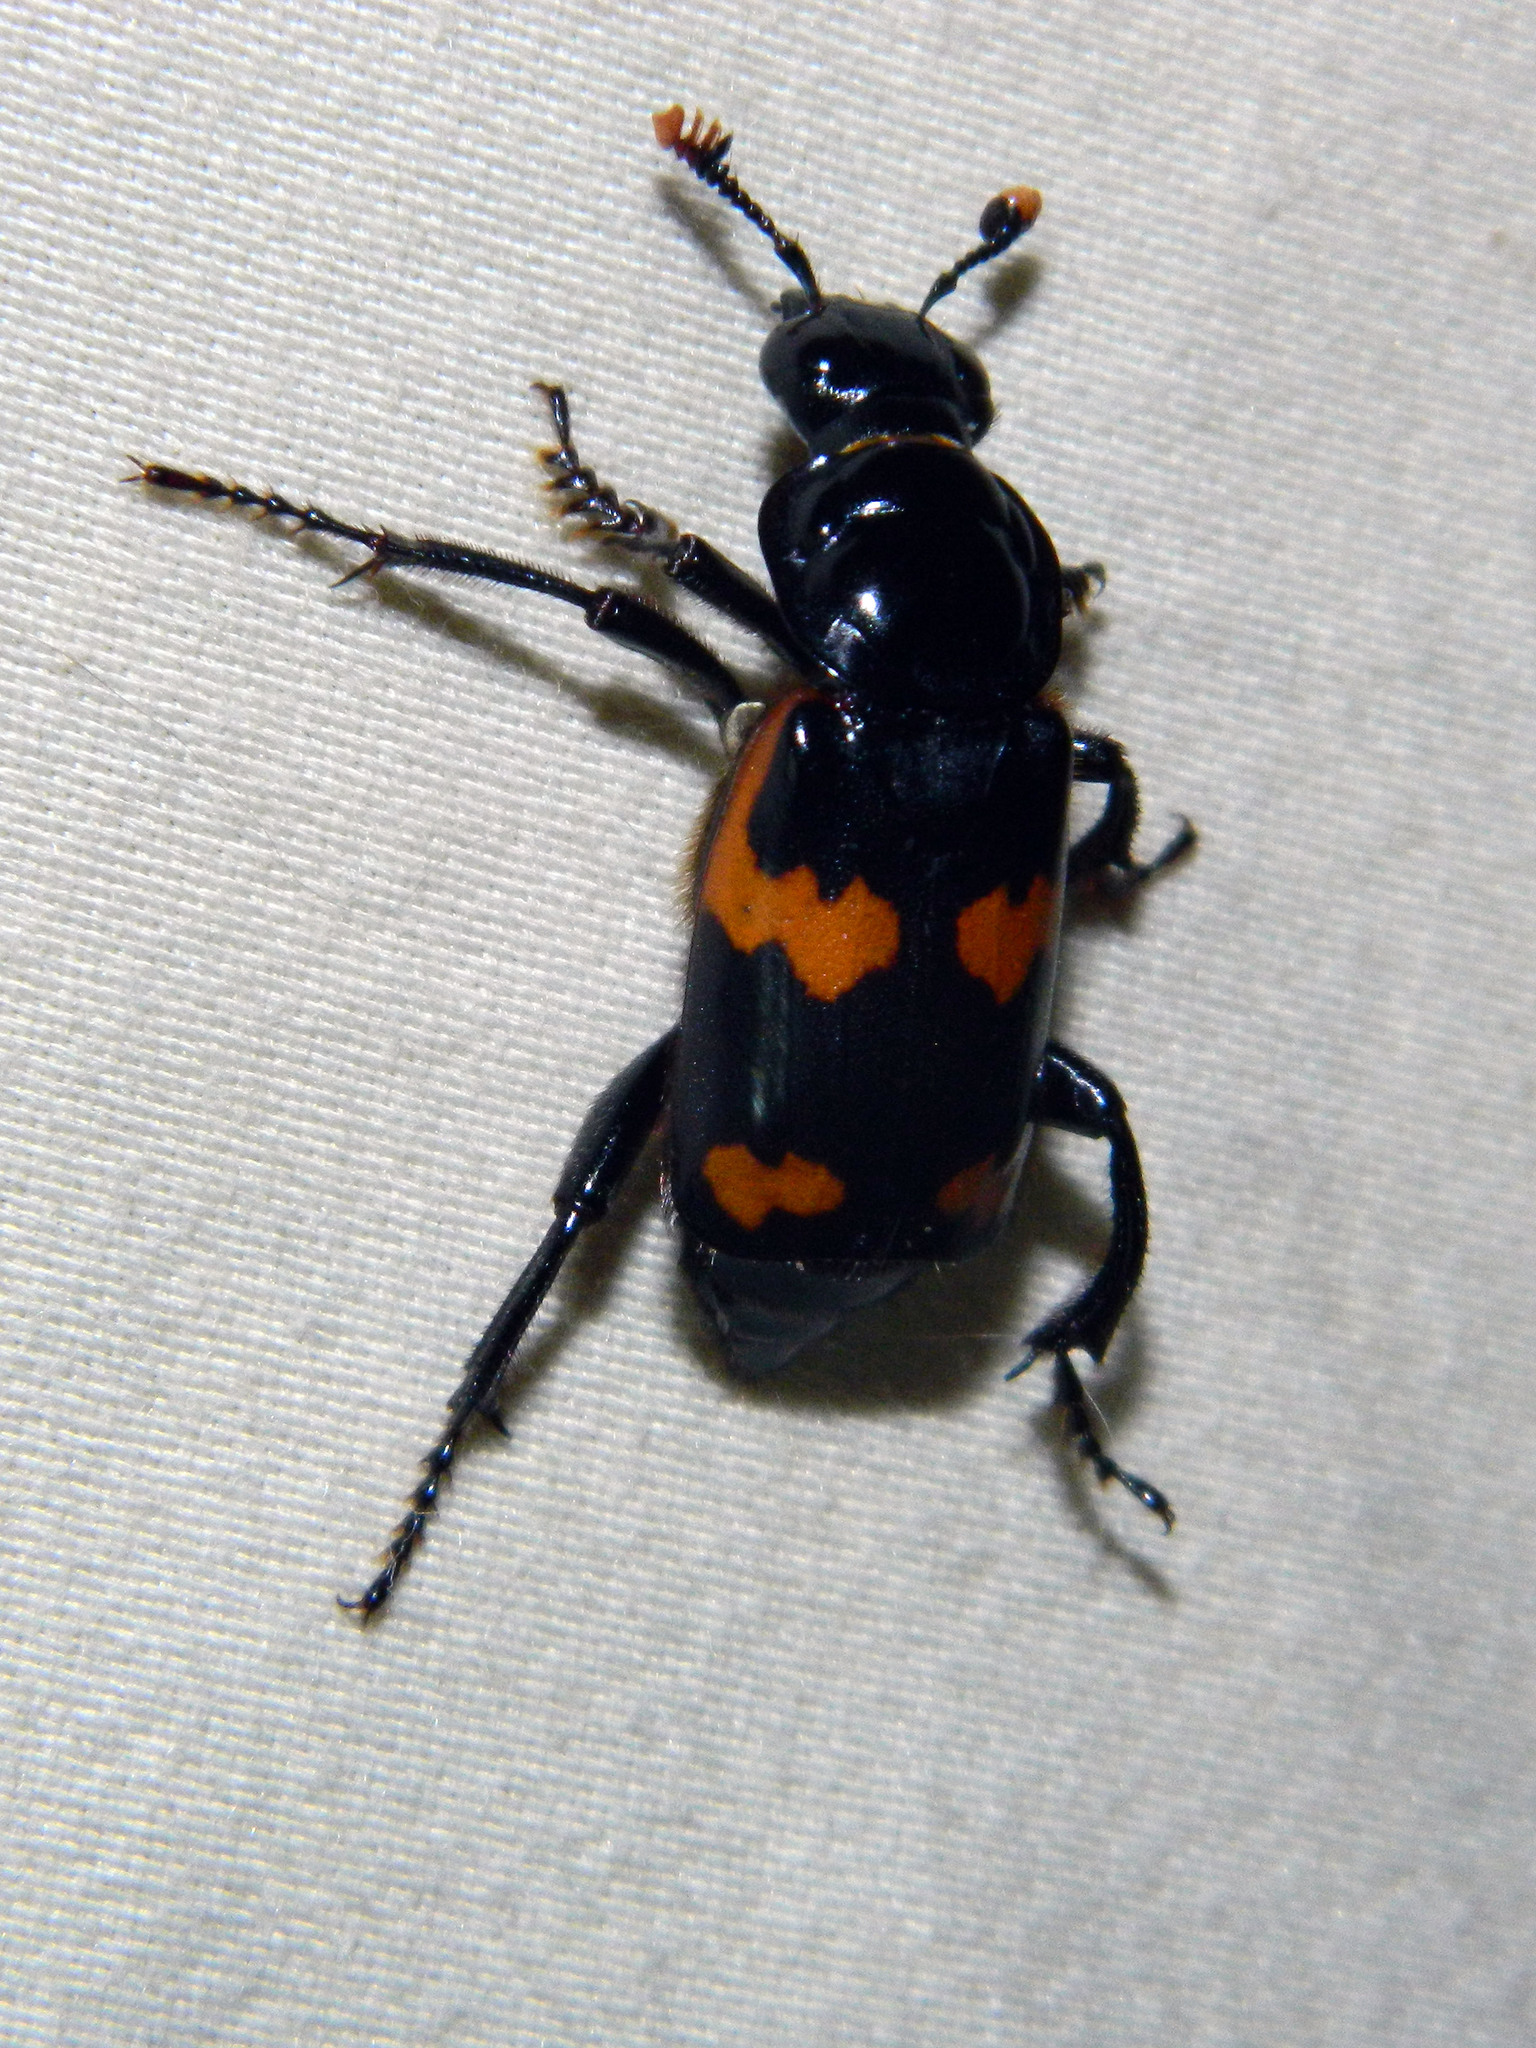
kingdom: Animalia
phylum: Arthropoda
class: Insecta
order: Coleoptera
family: Staphylinidae
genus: Nicrophorus
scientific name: Nicrophorus sayi
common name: Say's burying beetle
